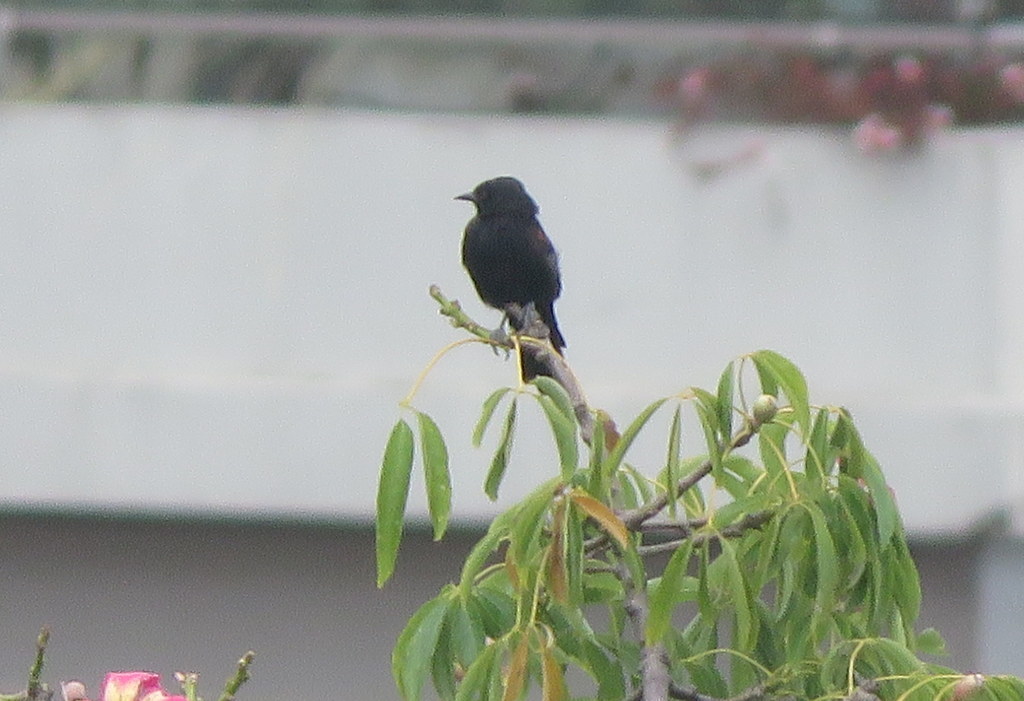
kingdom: Animalia
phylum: Chordata
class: Aves
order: Passeriformes
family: Icteridae
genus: Icterus
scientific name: Icterus cayanensis
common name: Epaulet oriole
